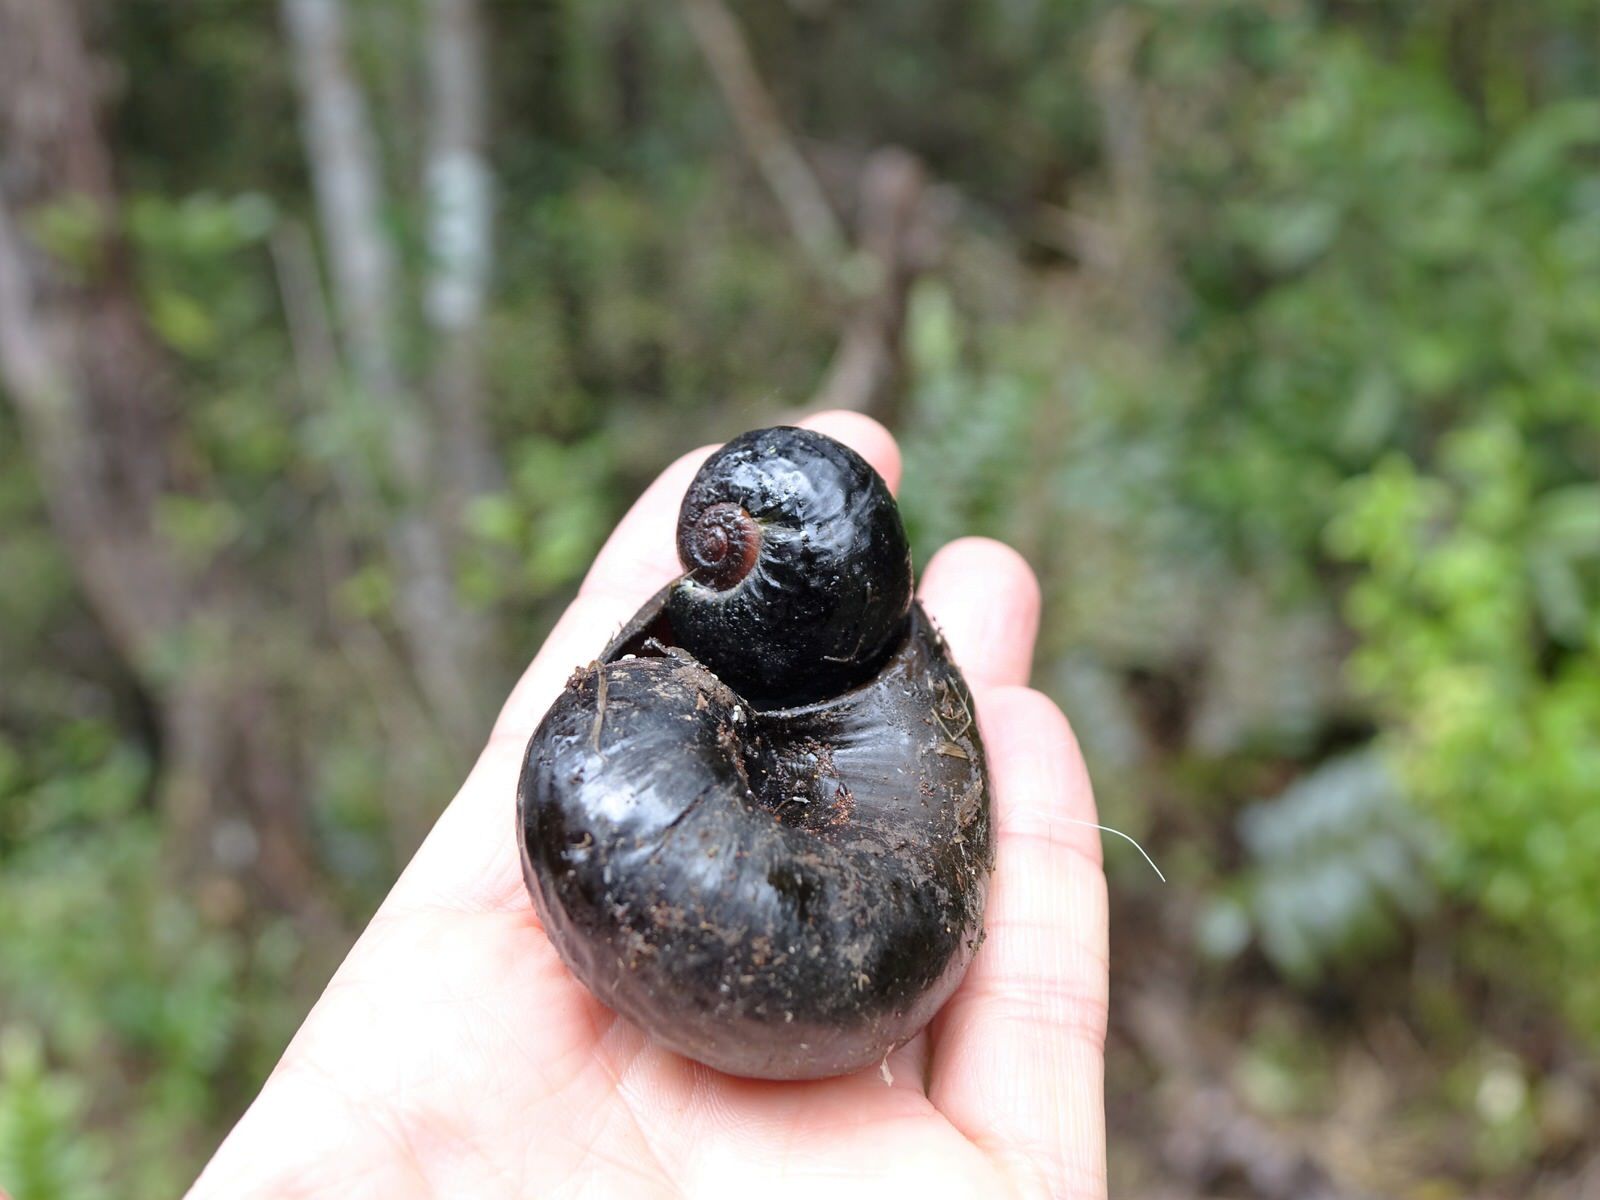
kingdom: Animalia
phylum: Mollusca
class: Gastropoda
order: Stylommatophora
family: Rhytididae
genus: Paryphanta
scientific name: Paryphanta busbyi
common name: Kauri snail
